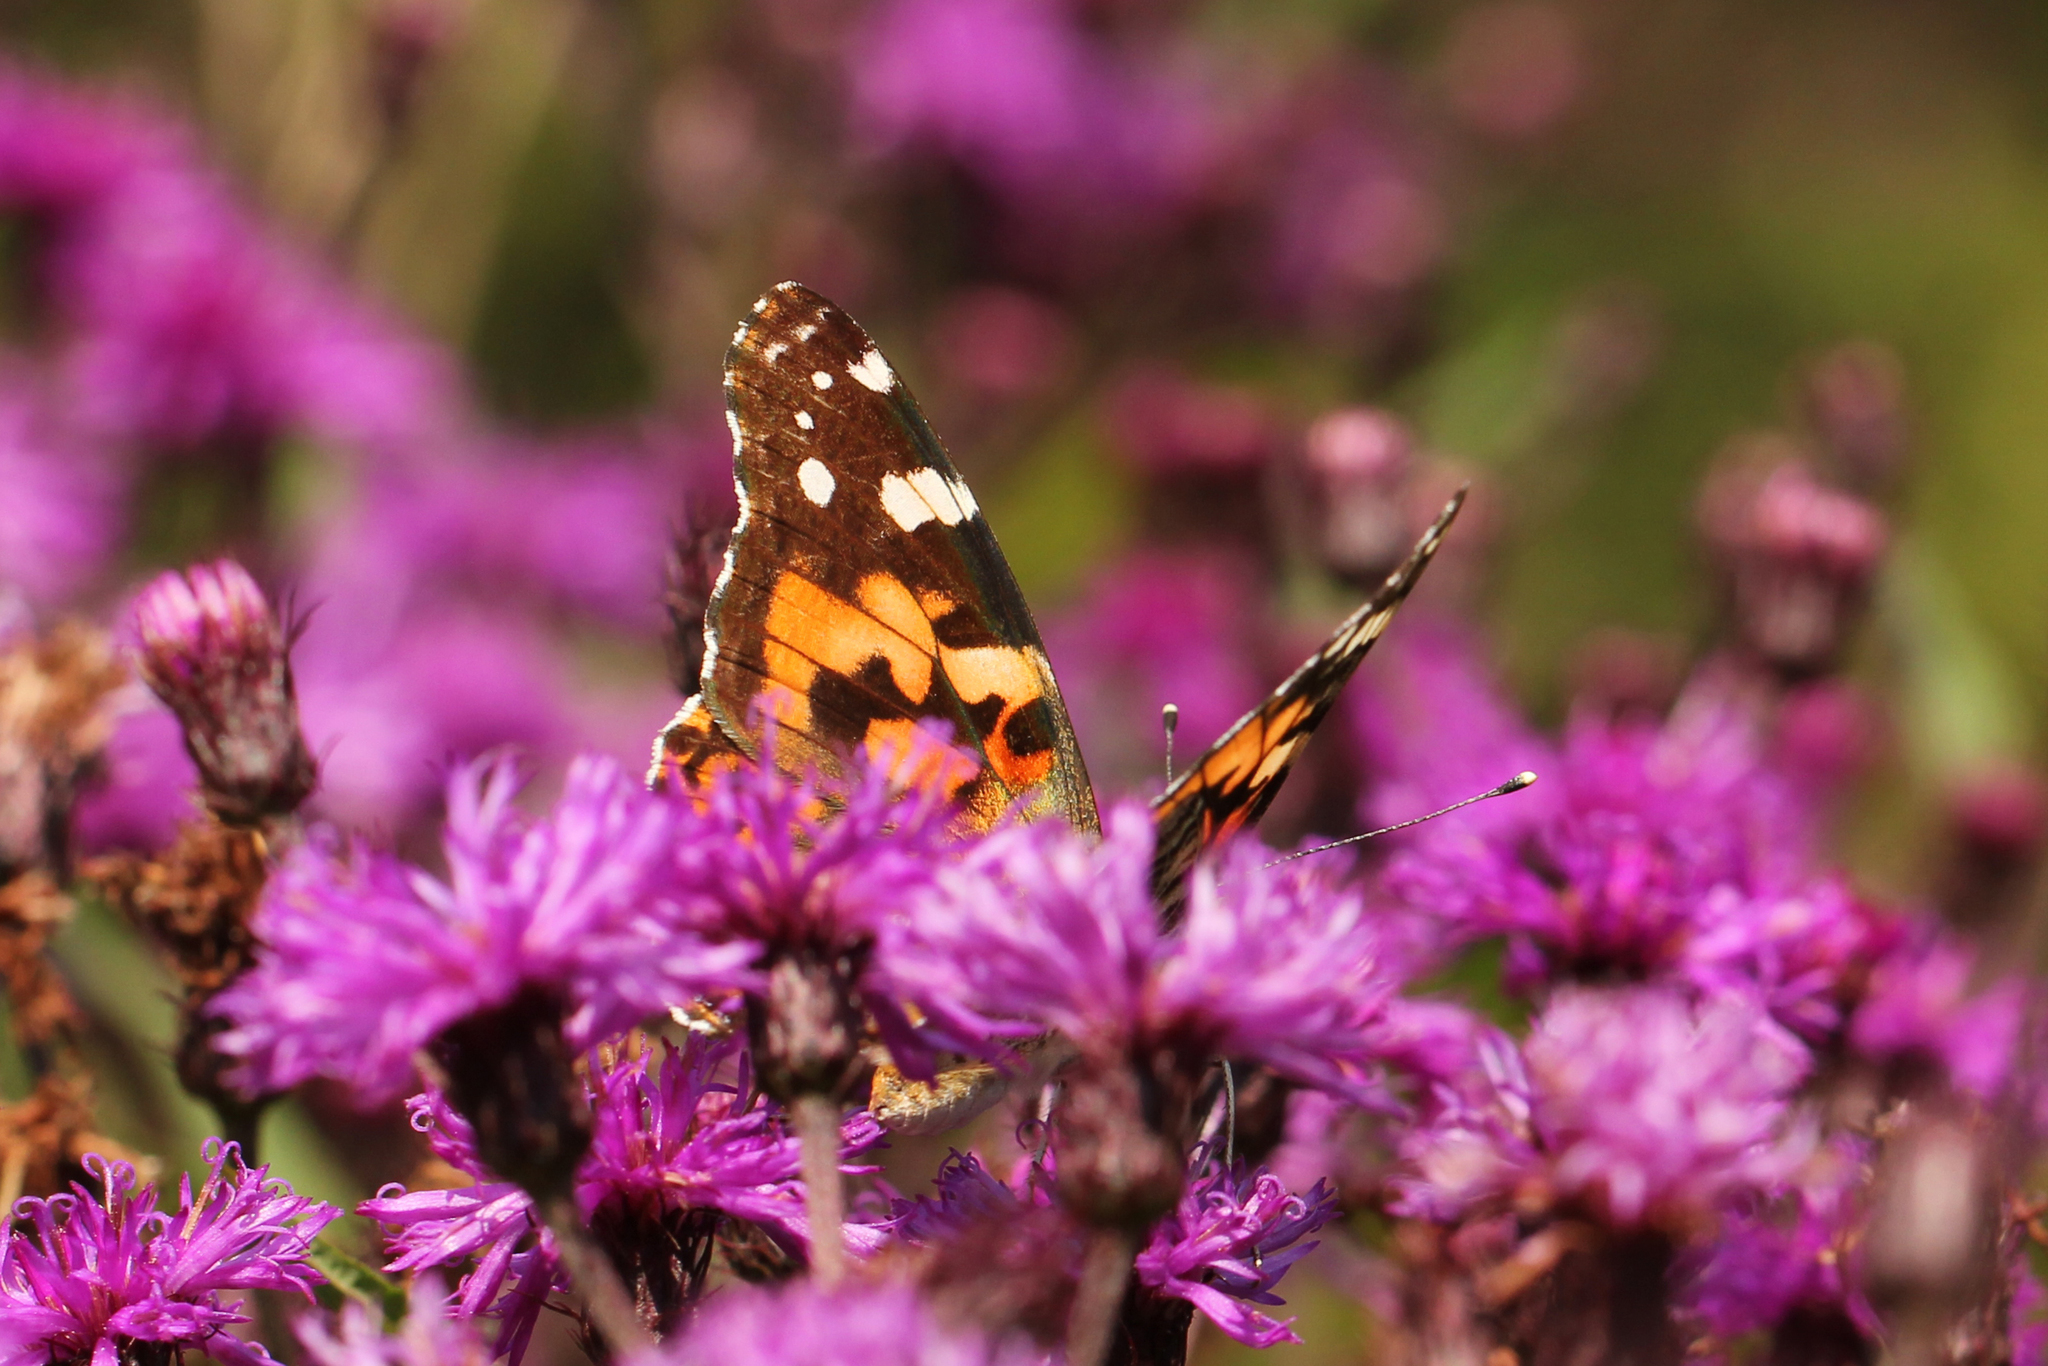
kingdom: Animalia
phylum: Arthropoda
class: Insecta
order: Lepidoptera
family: Nymphalidae
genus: Vanessa
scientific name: Vanessa cardui
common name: Painted lady
